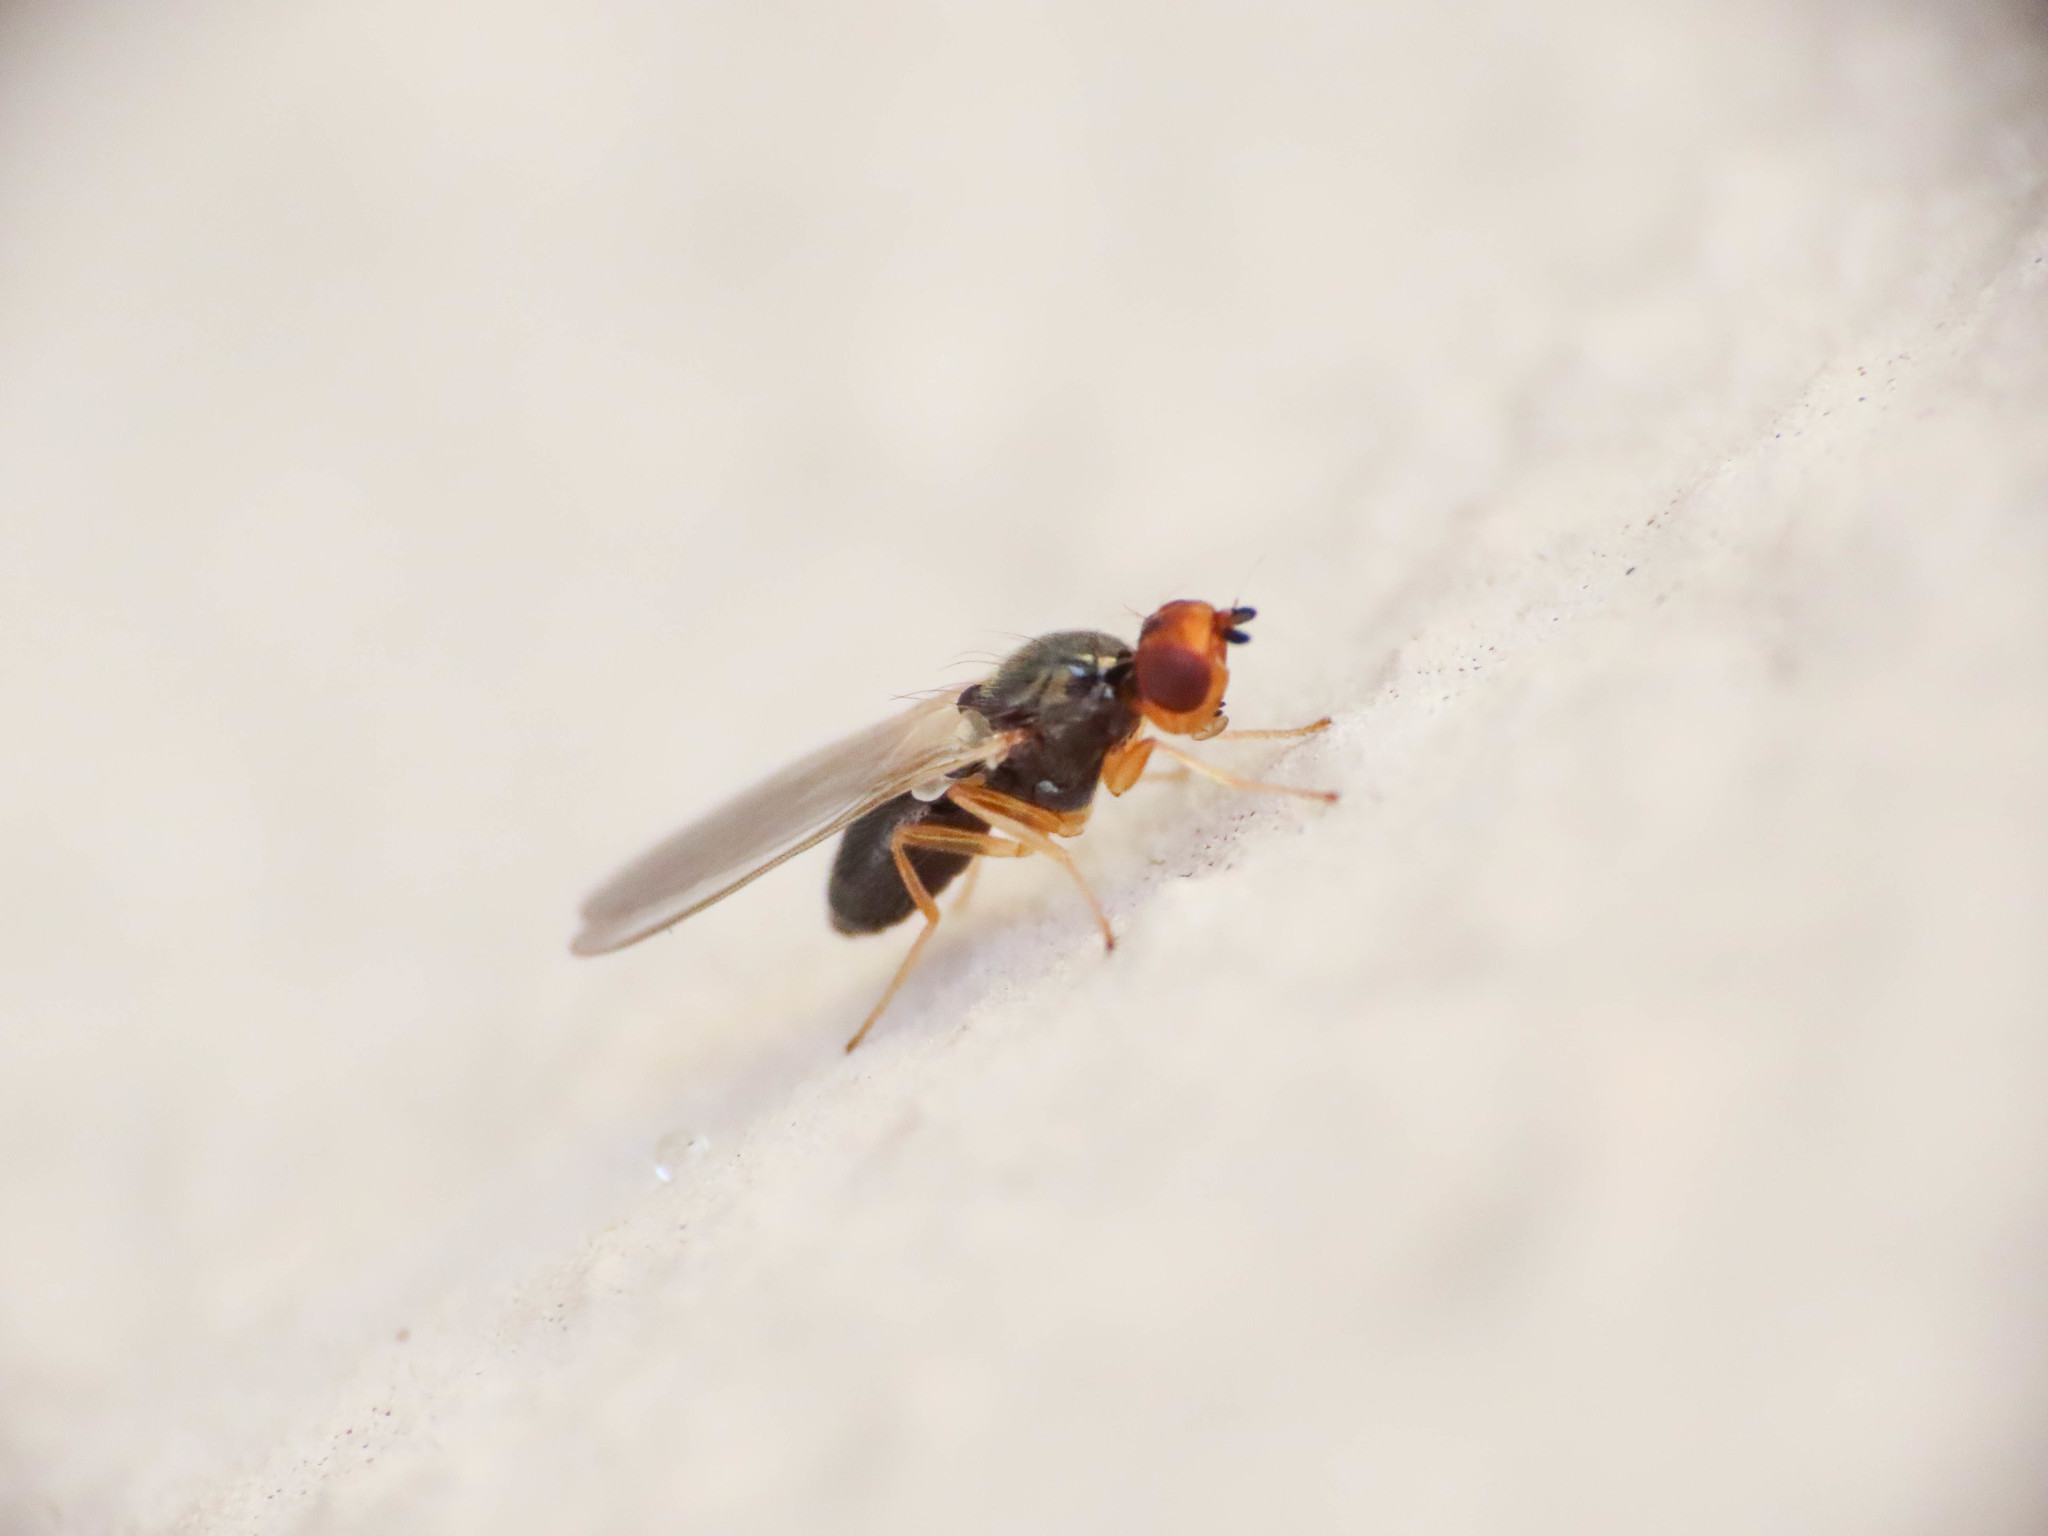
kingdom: Animalia
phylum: Arthropoda
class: Insecta
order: Diptera
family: Psilidae
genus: Chamaepsila
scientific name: Chamaepsila
